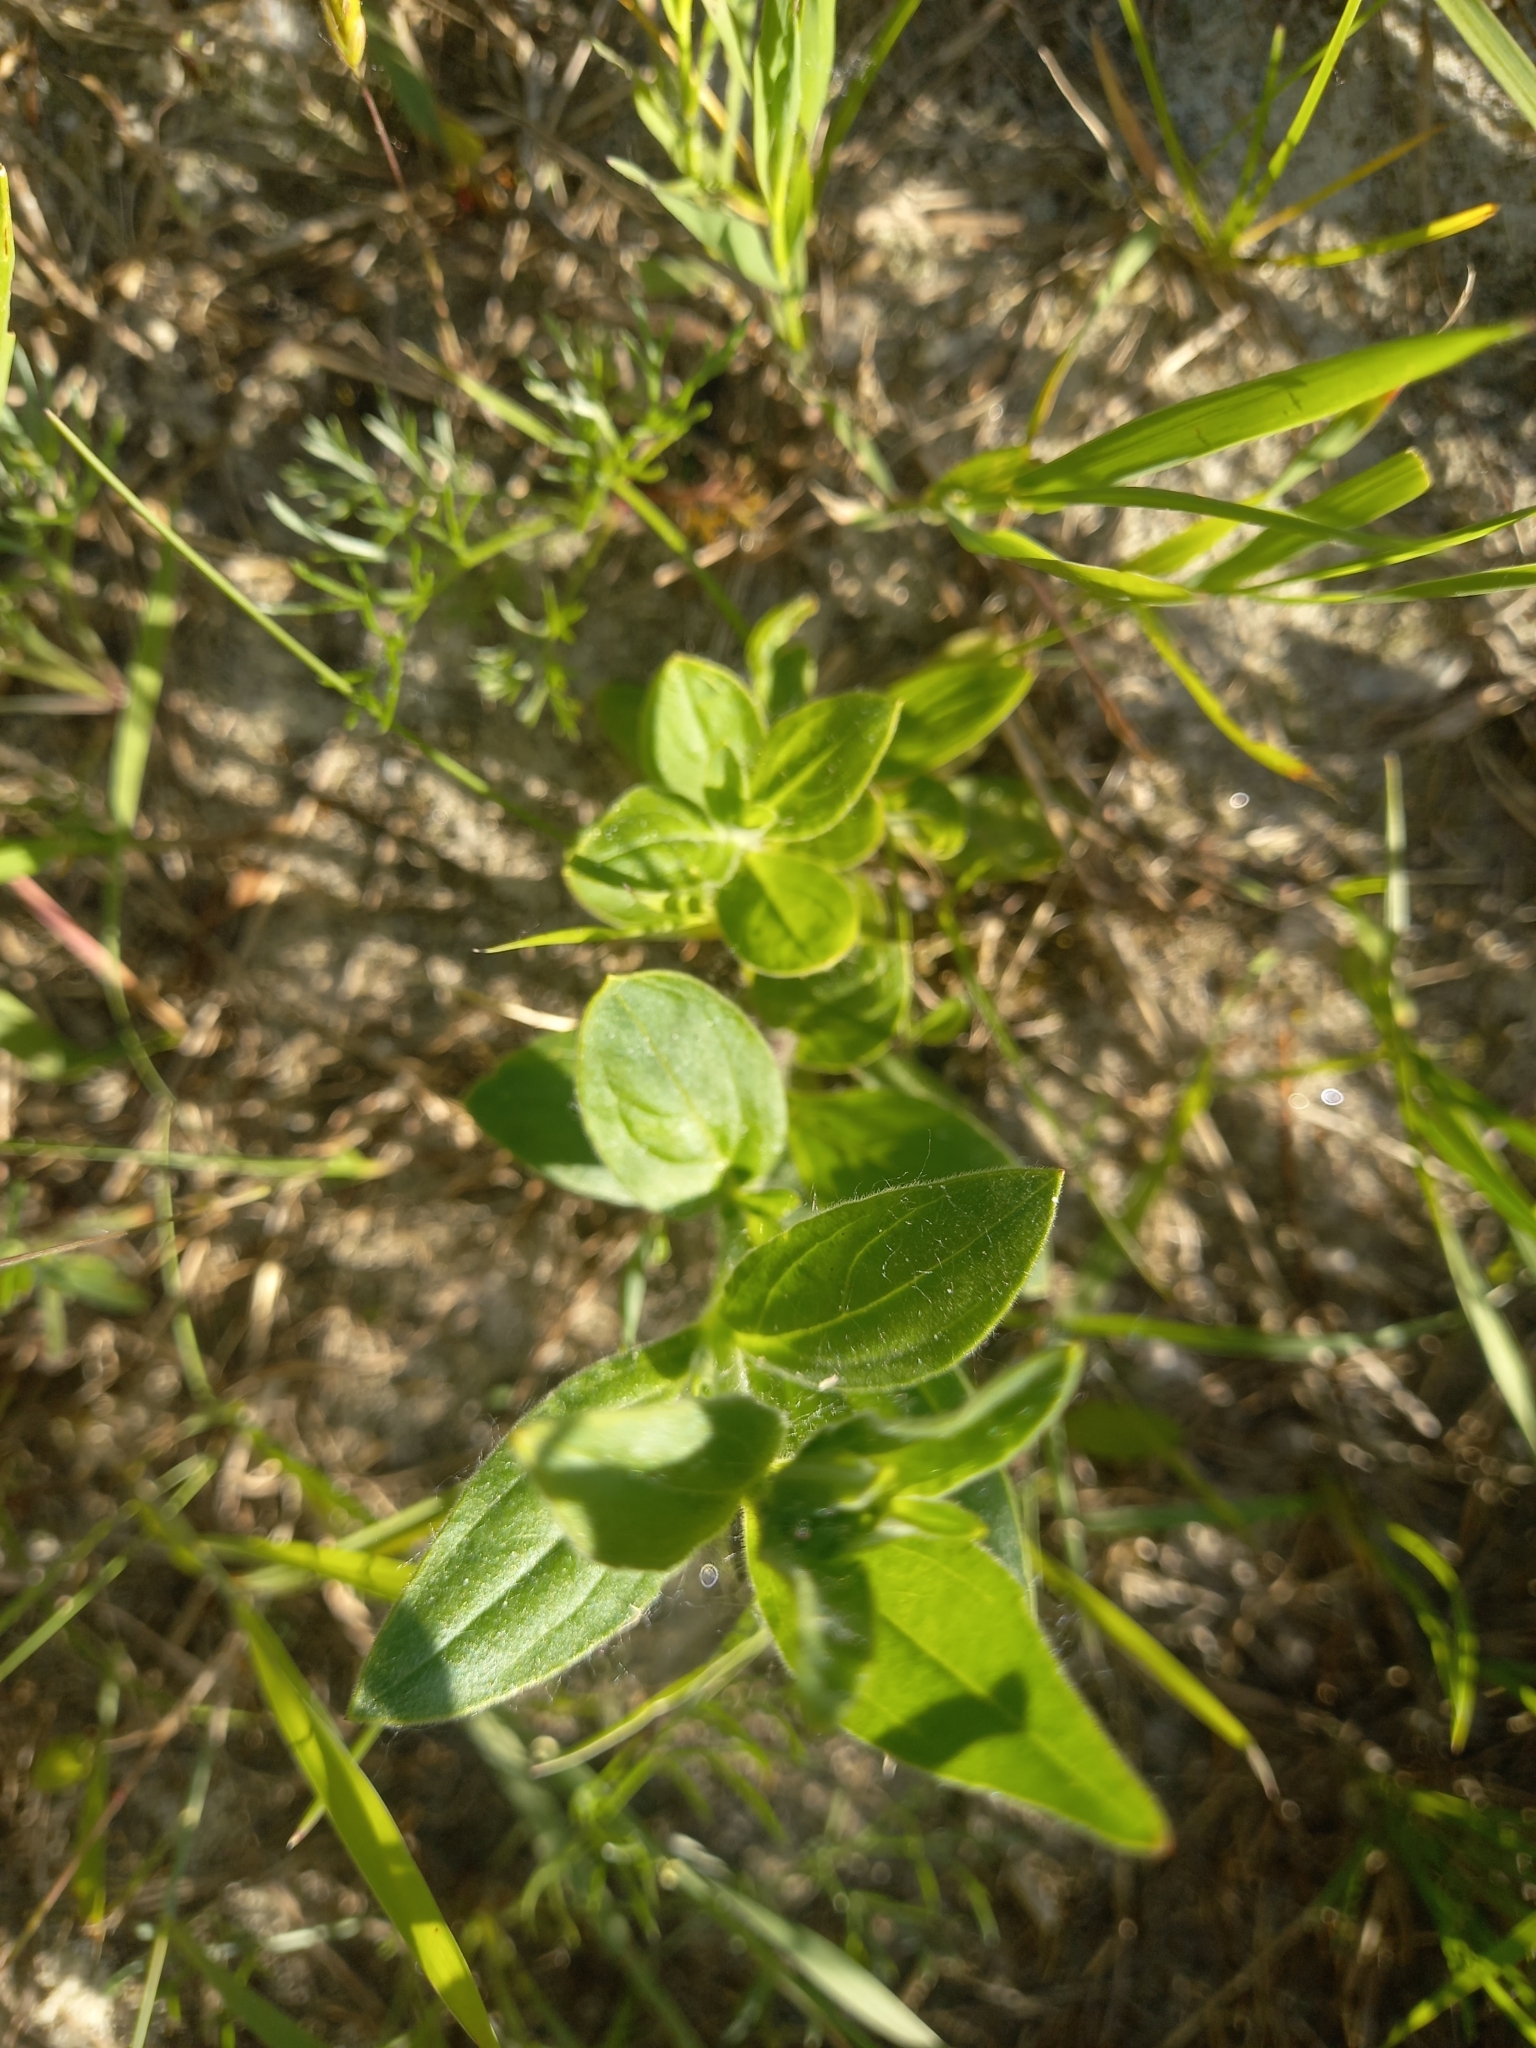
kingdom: Plantae
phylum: Tracheophyta
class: Magnoliopsida
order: Malpighiales
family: Hypericaceae
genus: Hypericum
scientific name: Hypericum maculatum
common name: Imperforate st. john's-wort
